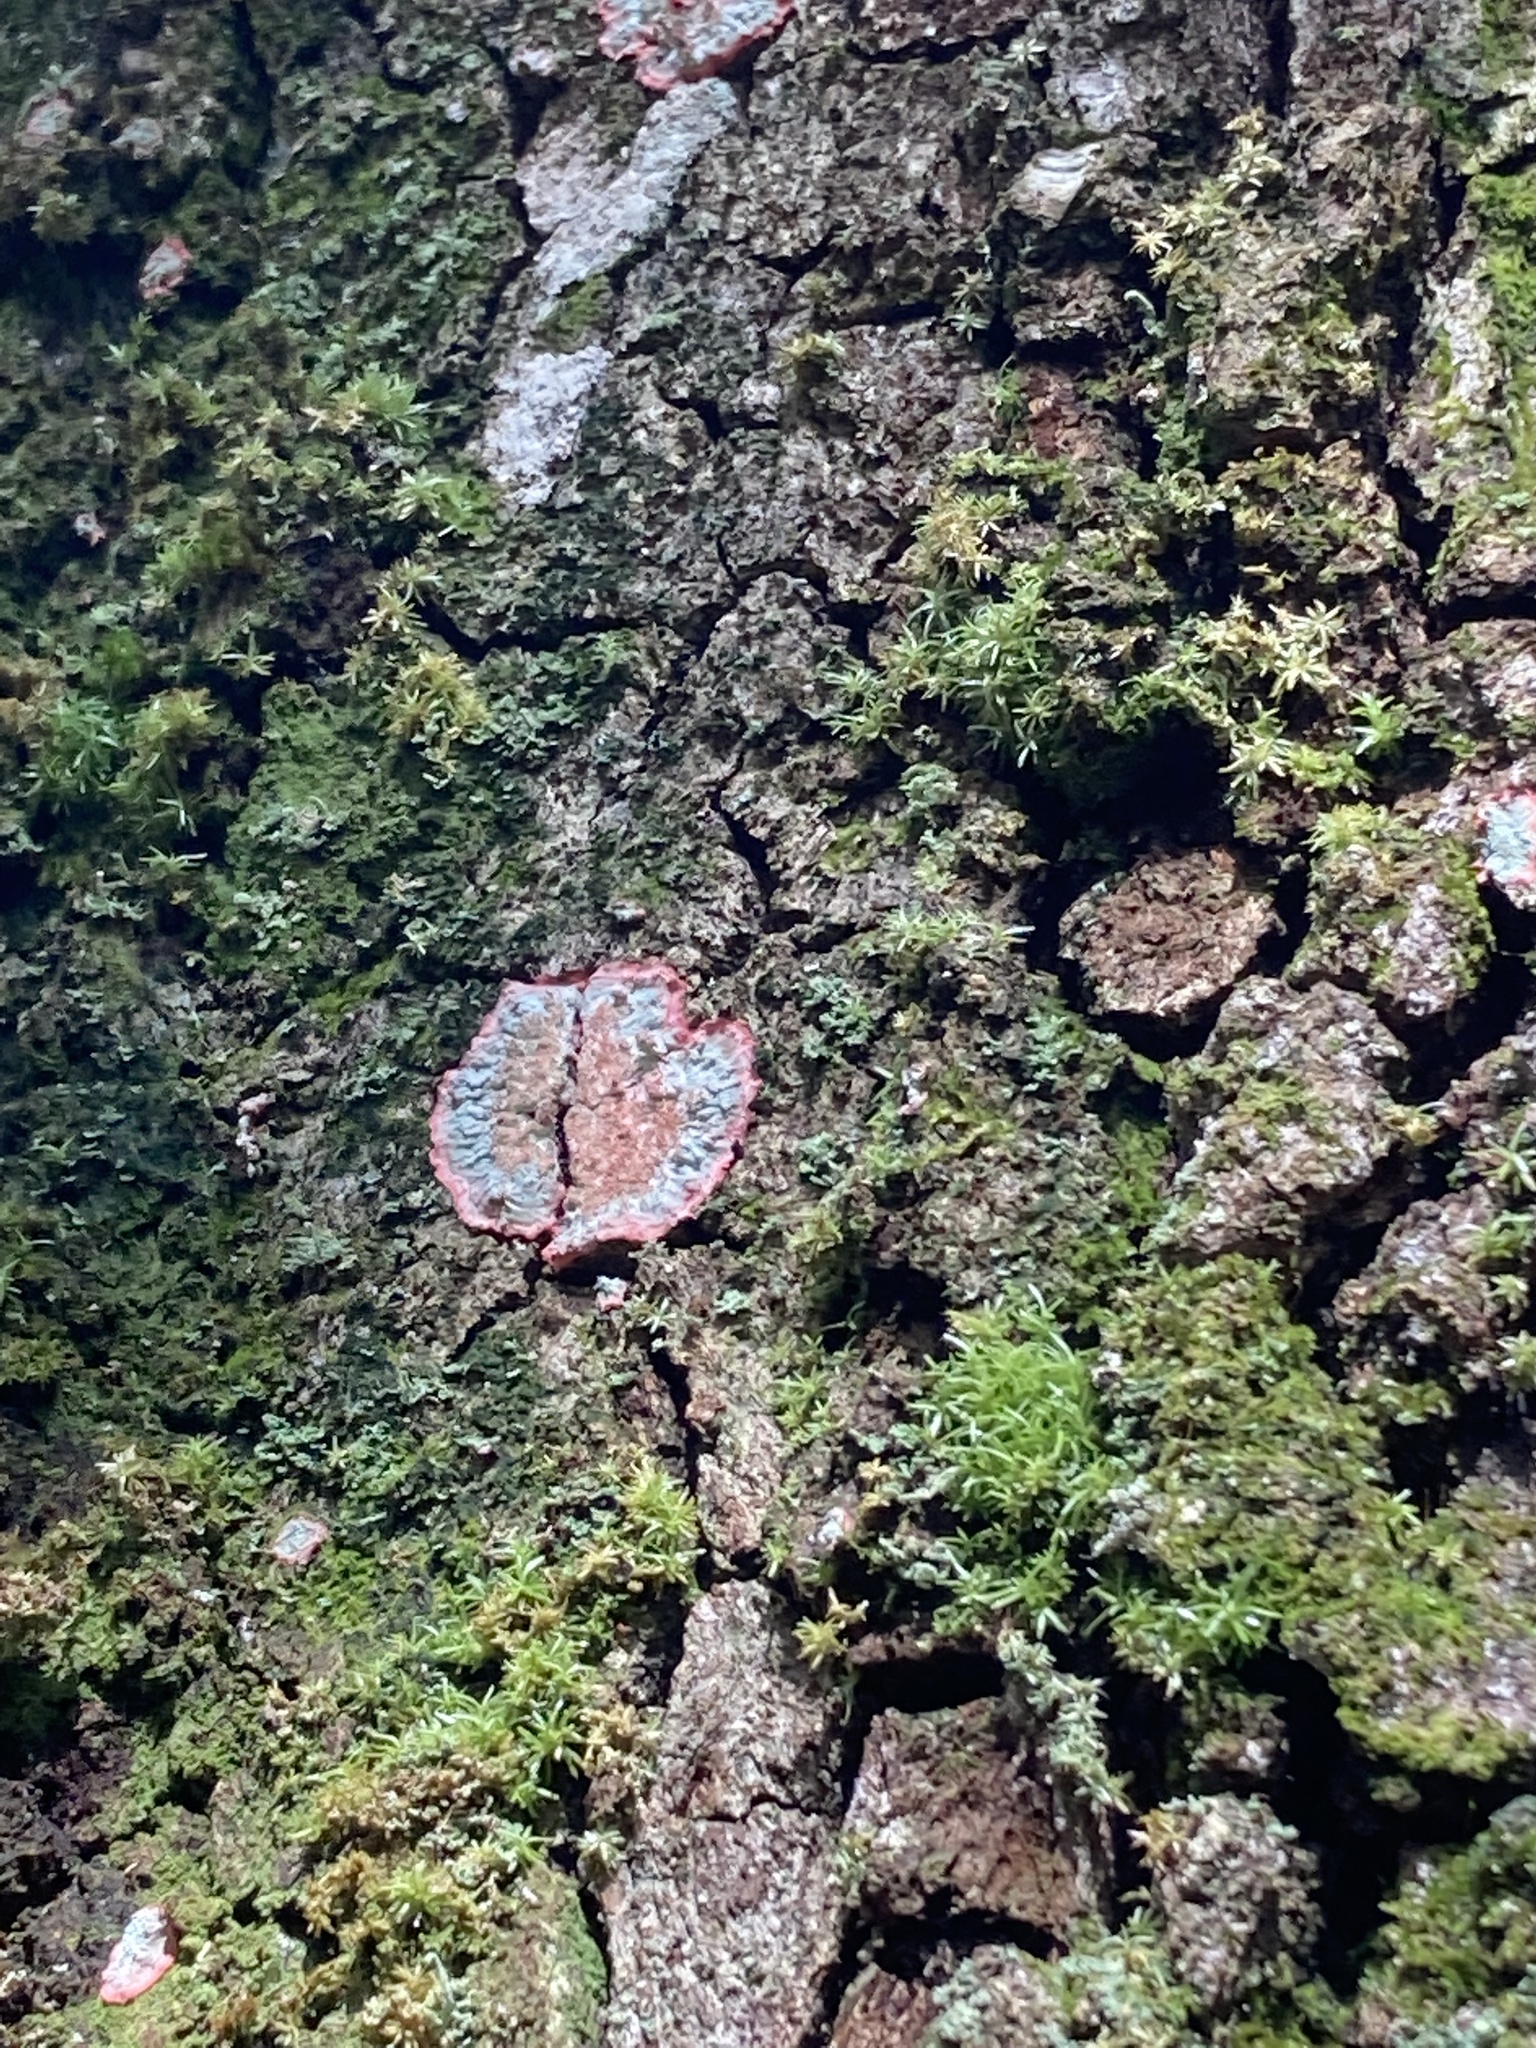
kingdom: Fungi
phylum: Ascomycota
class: Arthoniomycetes
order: Arthoniales
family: Arthoniaceae
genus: Herpothallon
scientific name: Herpothallon rubrocinctum
